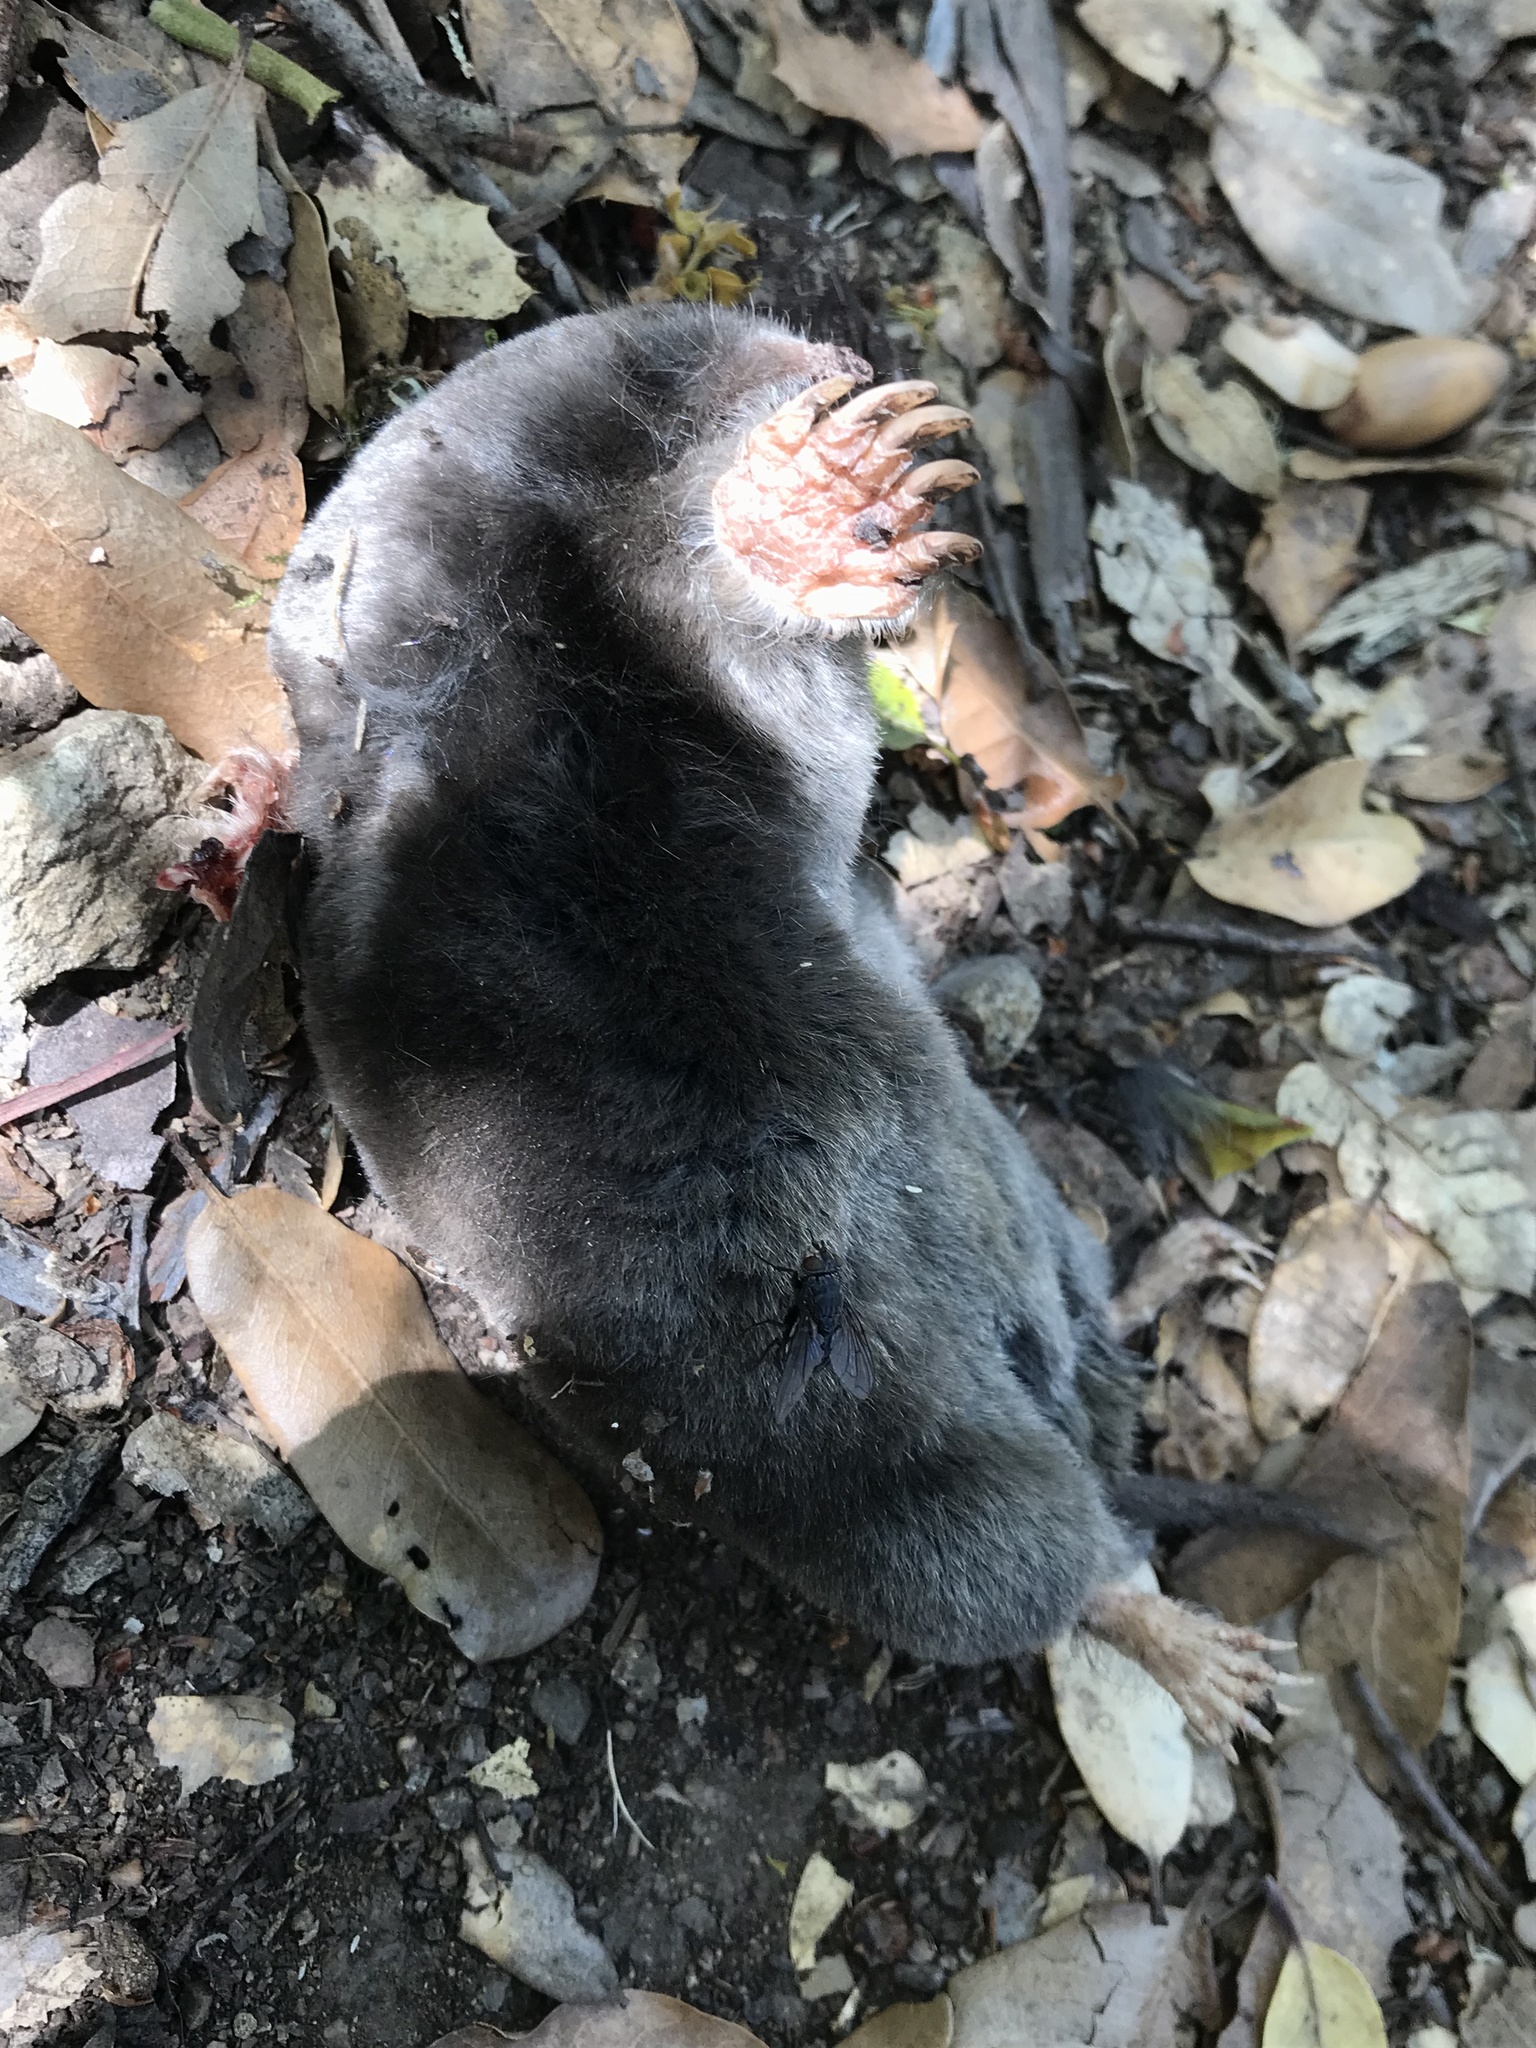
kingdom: Animalia
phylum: Chordata
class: Mammalia
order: Soricomorpha
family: Talpidae
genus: Scapanus
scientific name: Scapanus latimanus
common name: Broad-footed mole
